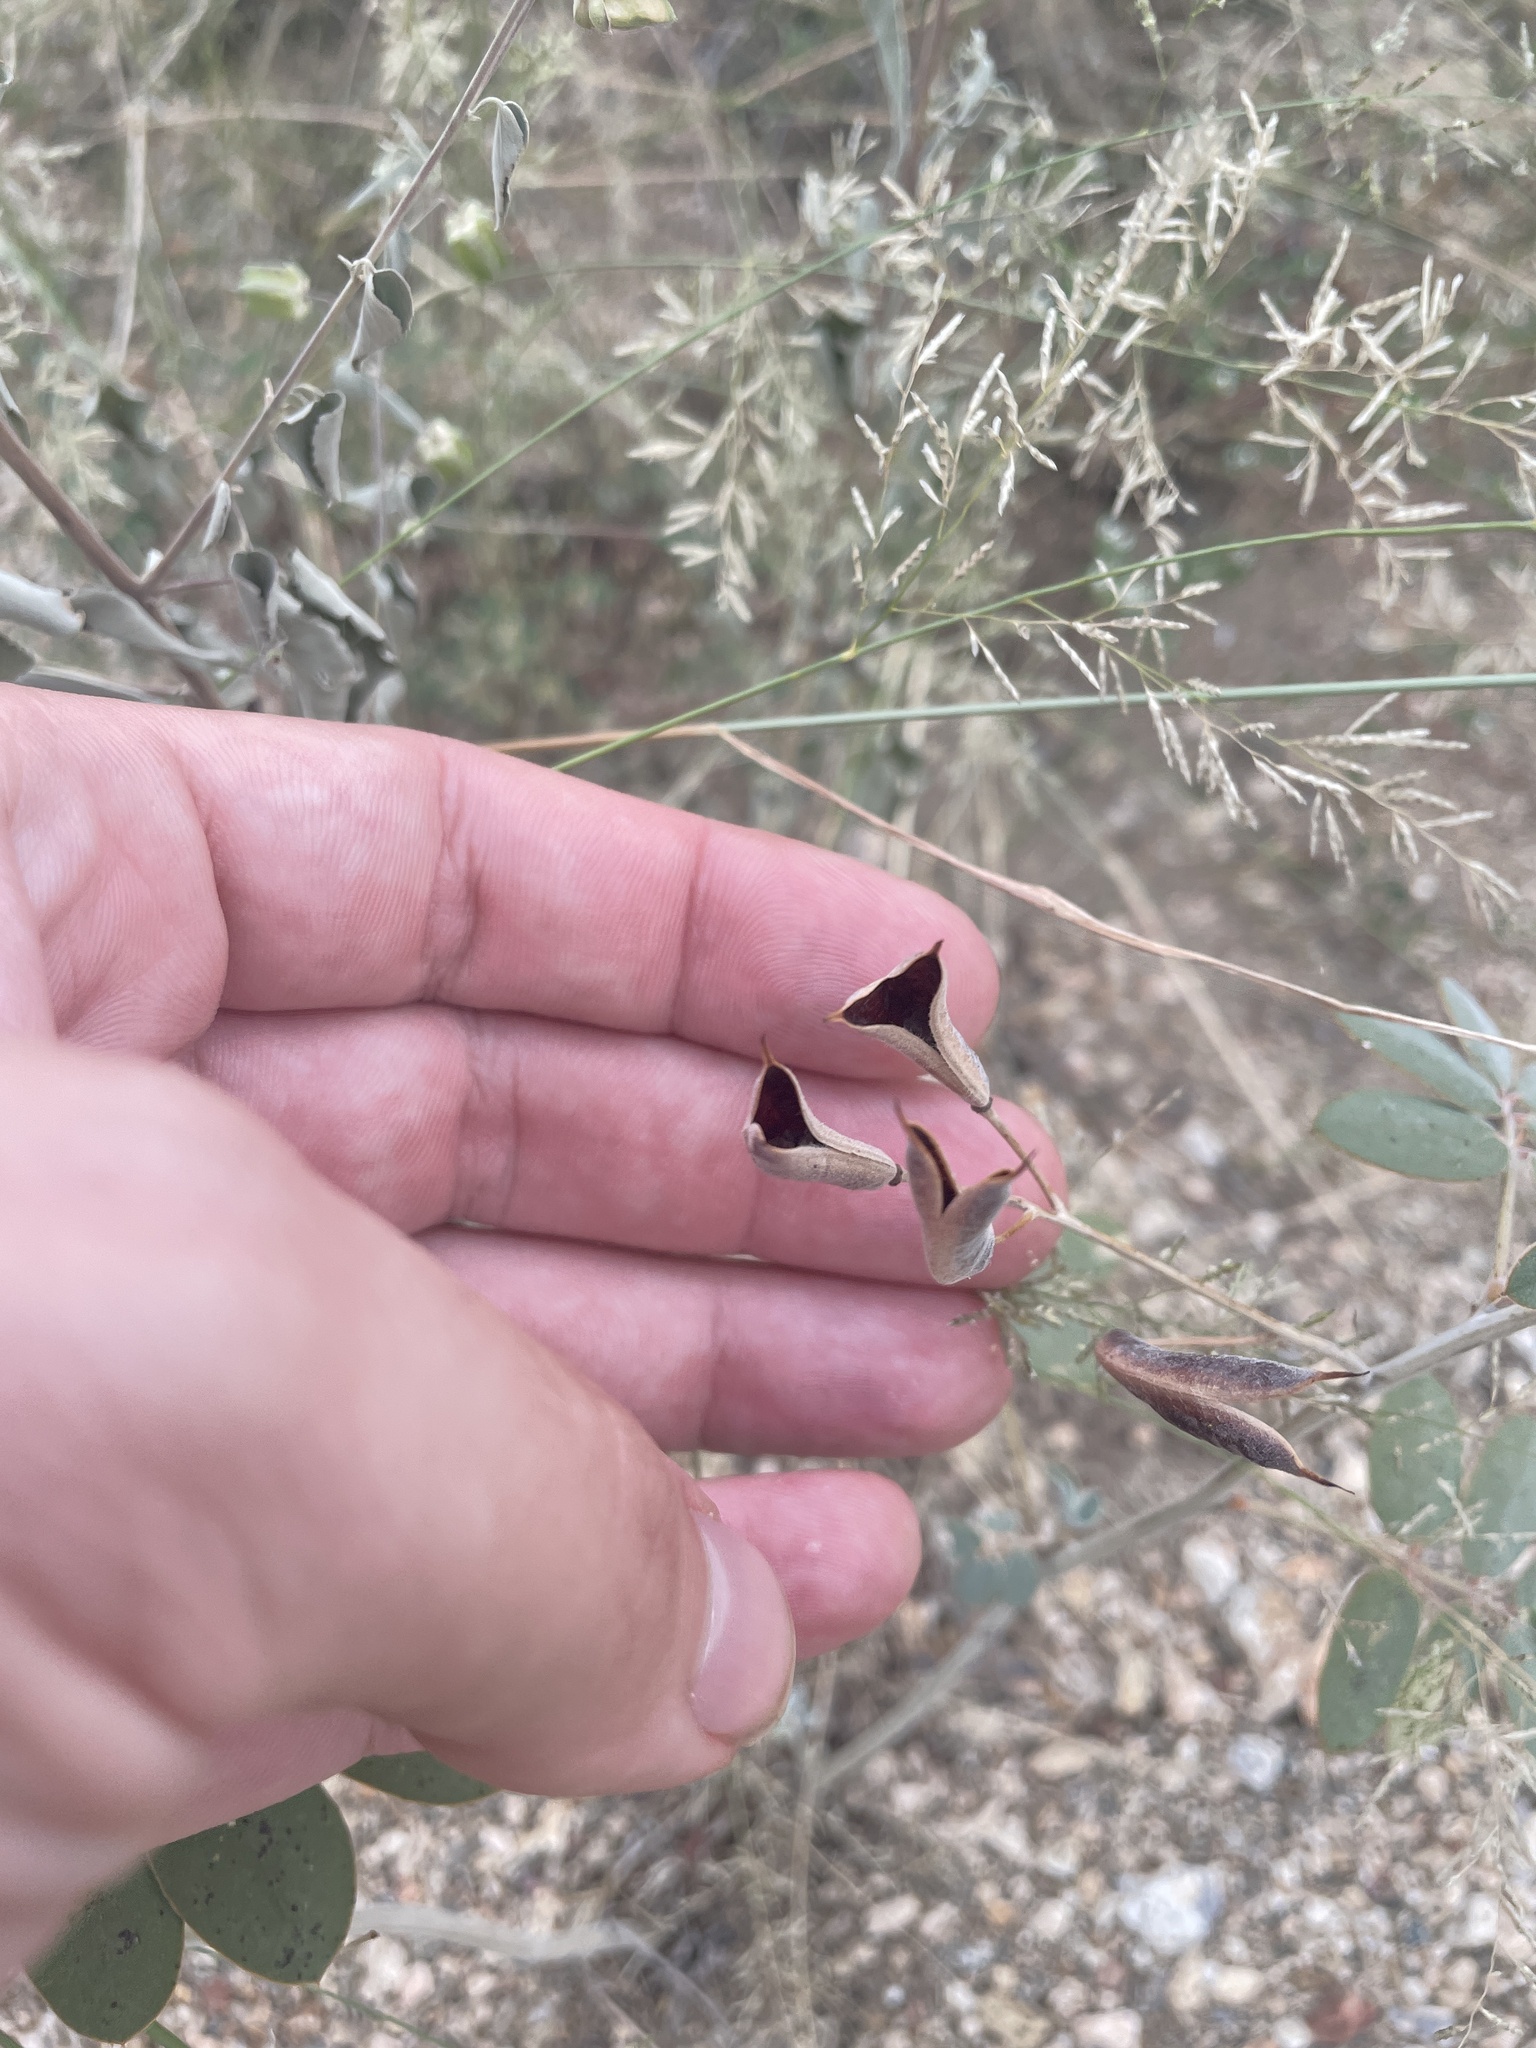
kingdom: Plantae
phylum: Tracheophyta
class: Magnoliopsida
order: Fabales
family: Fabaceae
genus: Senna
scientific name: Senna covesii
